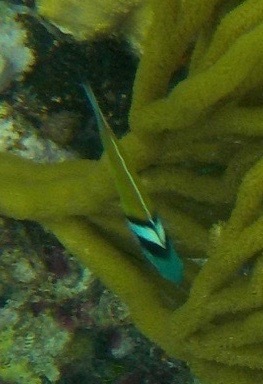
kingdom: Animalia
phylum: Chordata
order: Perciformes
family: Labridae
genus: Thalassoma
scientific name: Thalassoma bifasciatum
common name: Bluehead wrasse
